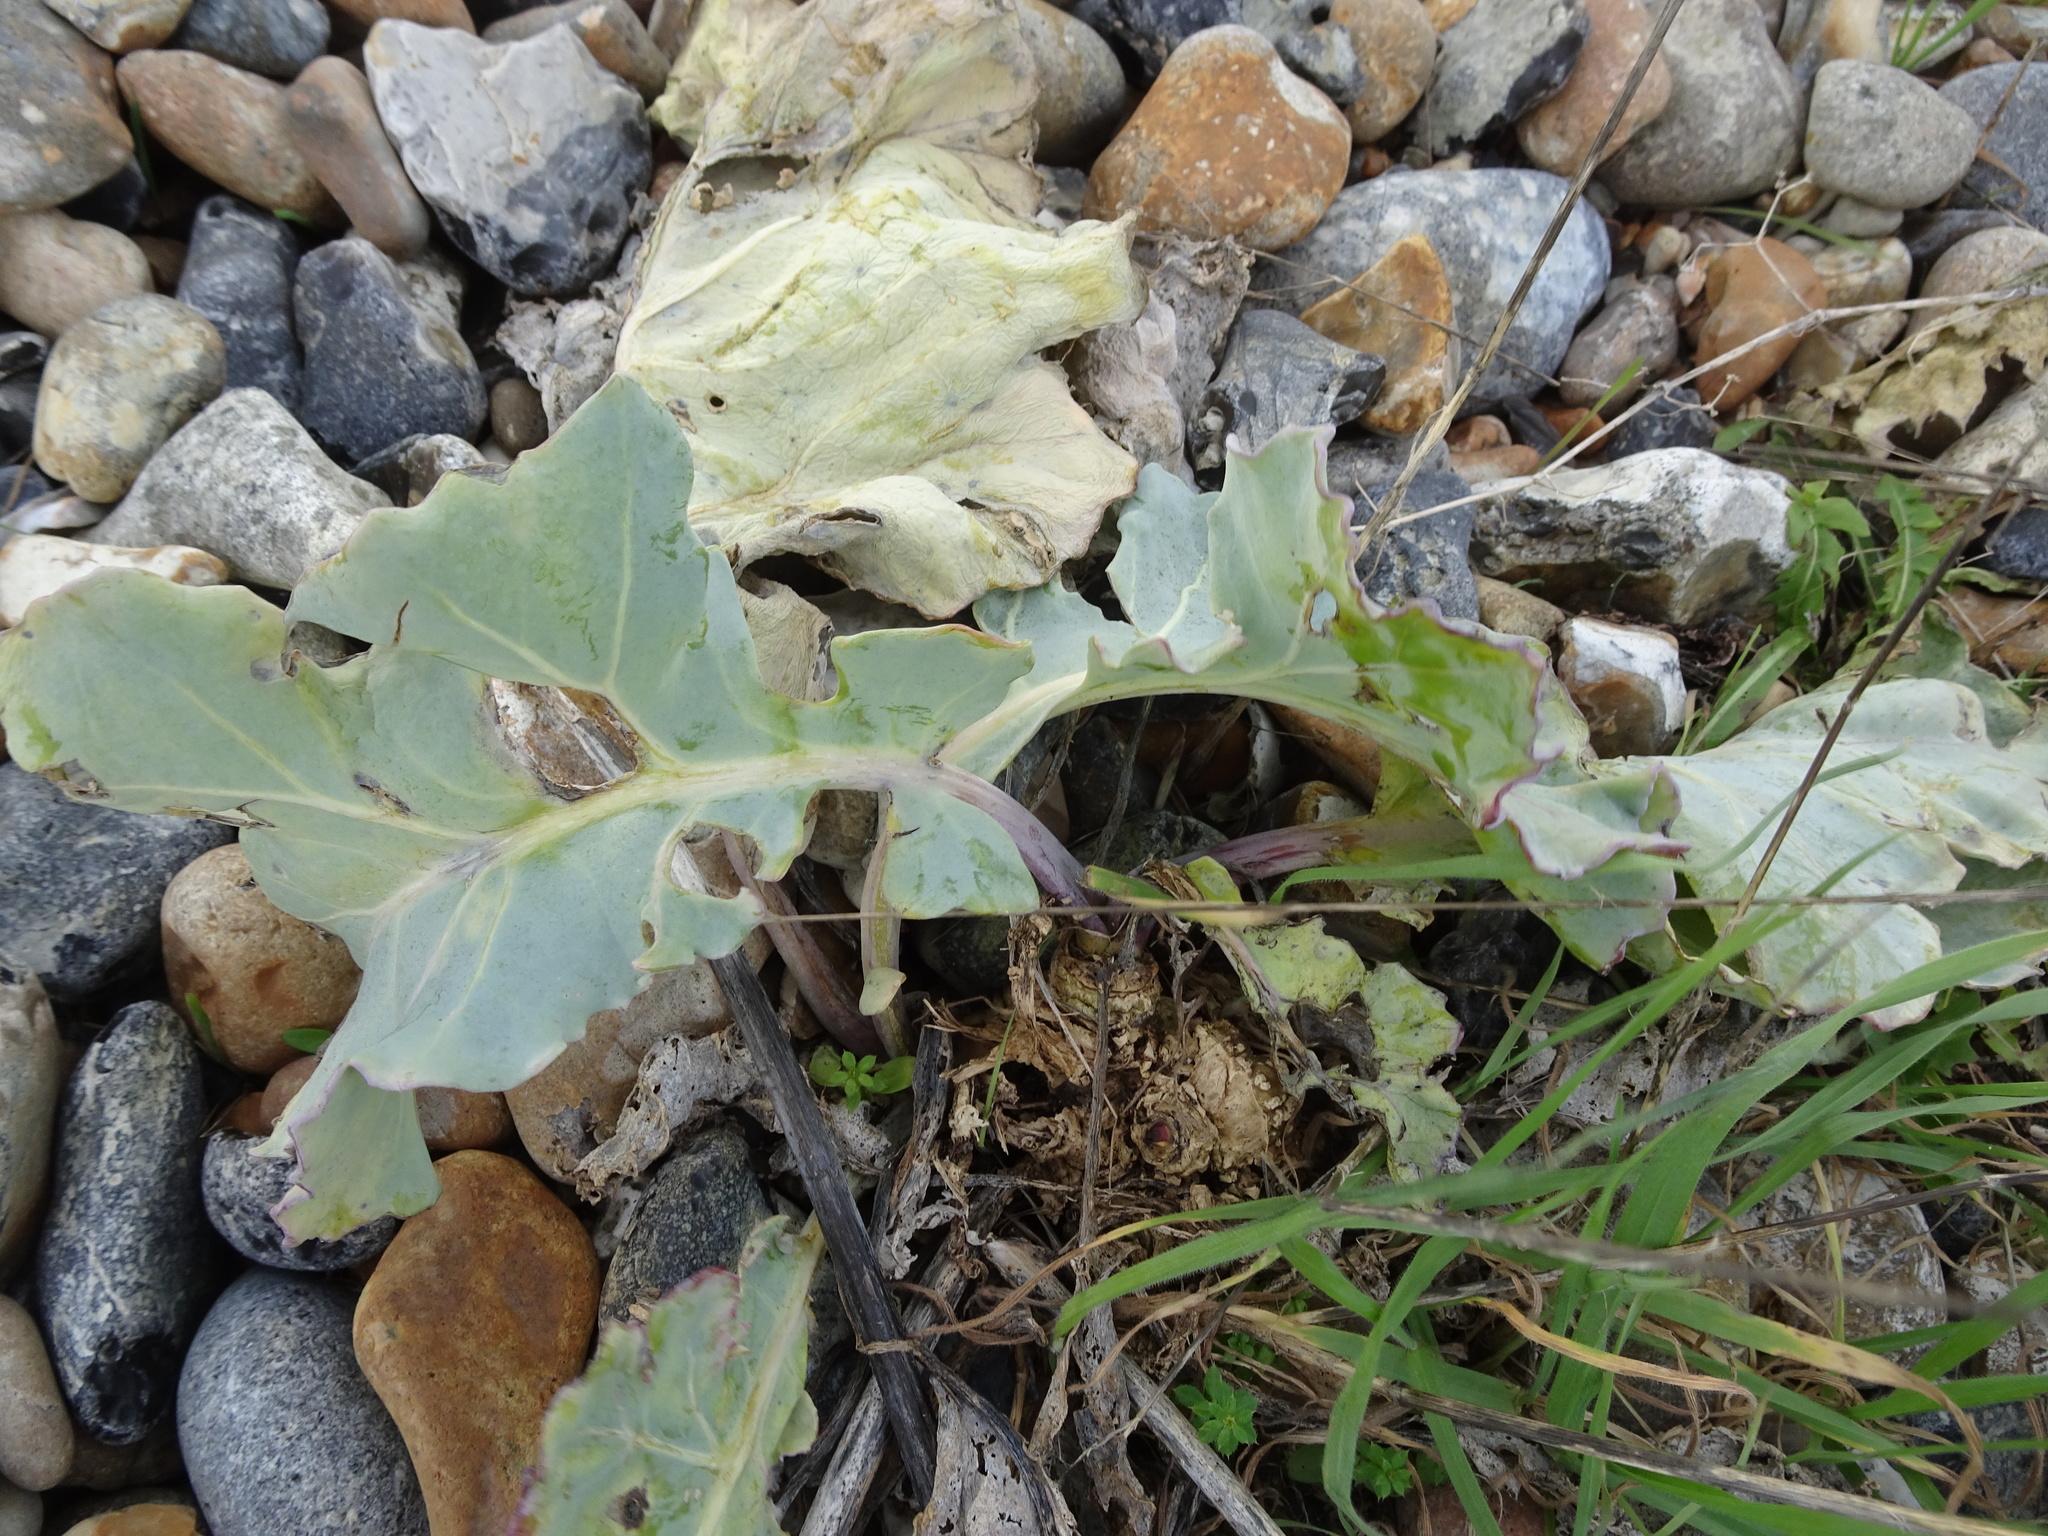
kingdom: Plantae
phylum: Tracheophyta
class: Magnoliopsida
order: Brassicales
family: Brassicaceae
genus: Crambe
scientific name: Crambe maritima
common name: Sea-kale
